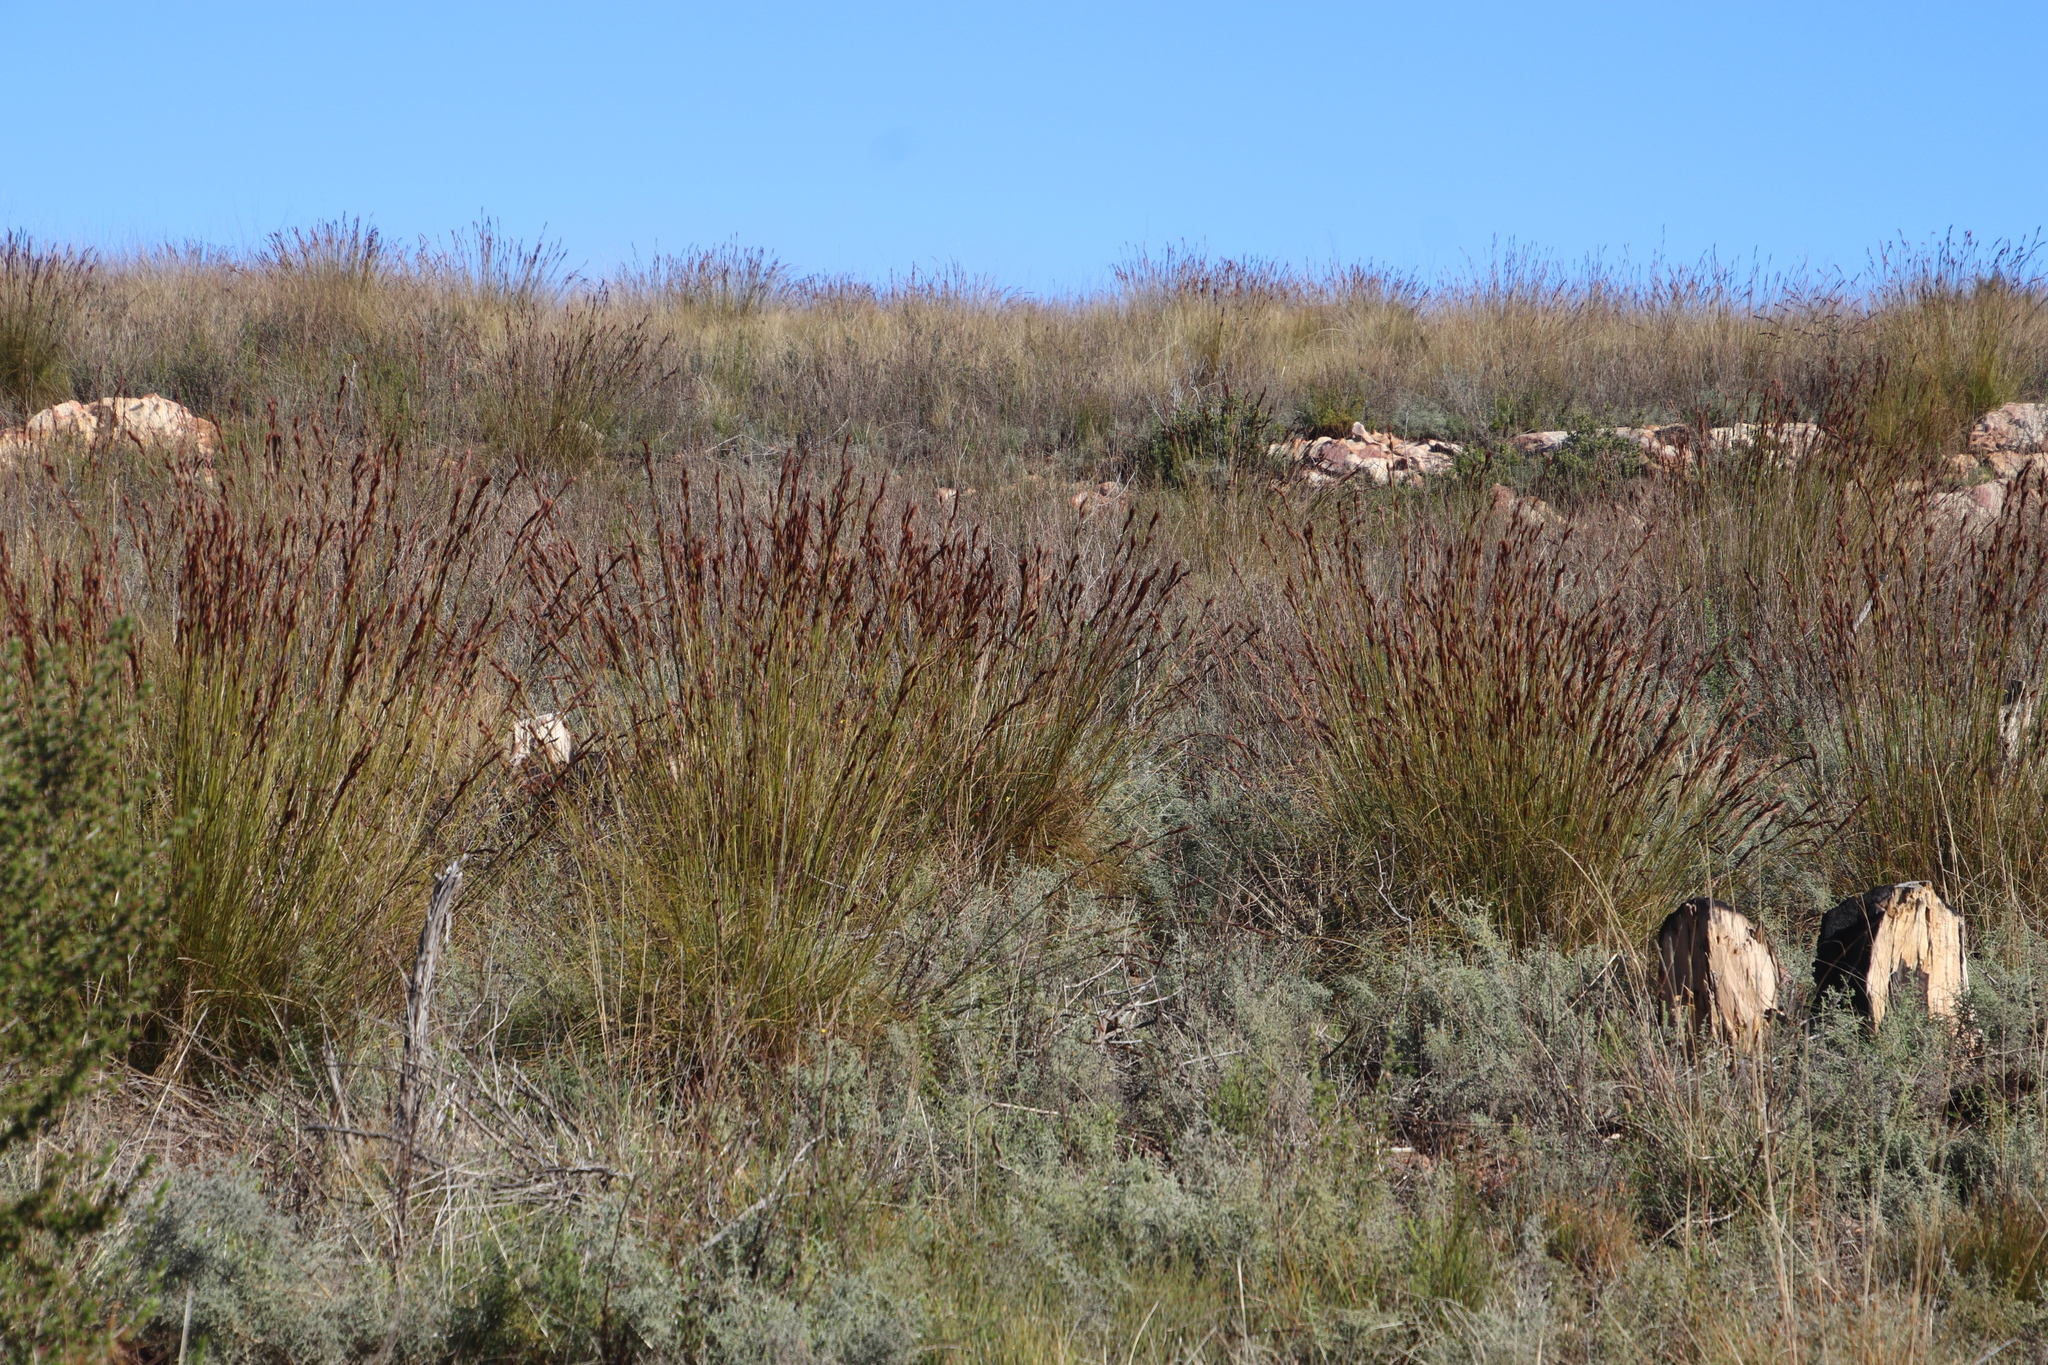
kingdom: Plantae
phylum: Tracheophyta
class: Liliopsida
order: Poales
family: Cyperaceae
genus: Tetraria
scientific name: Tetraria ustulata
